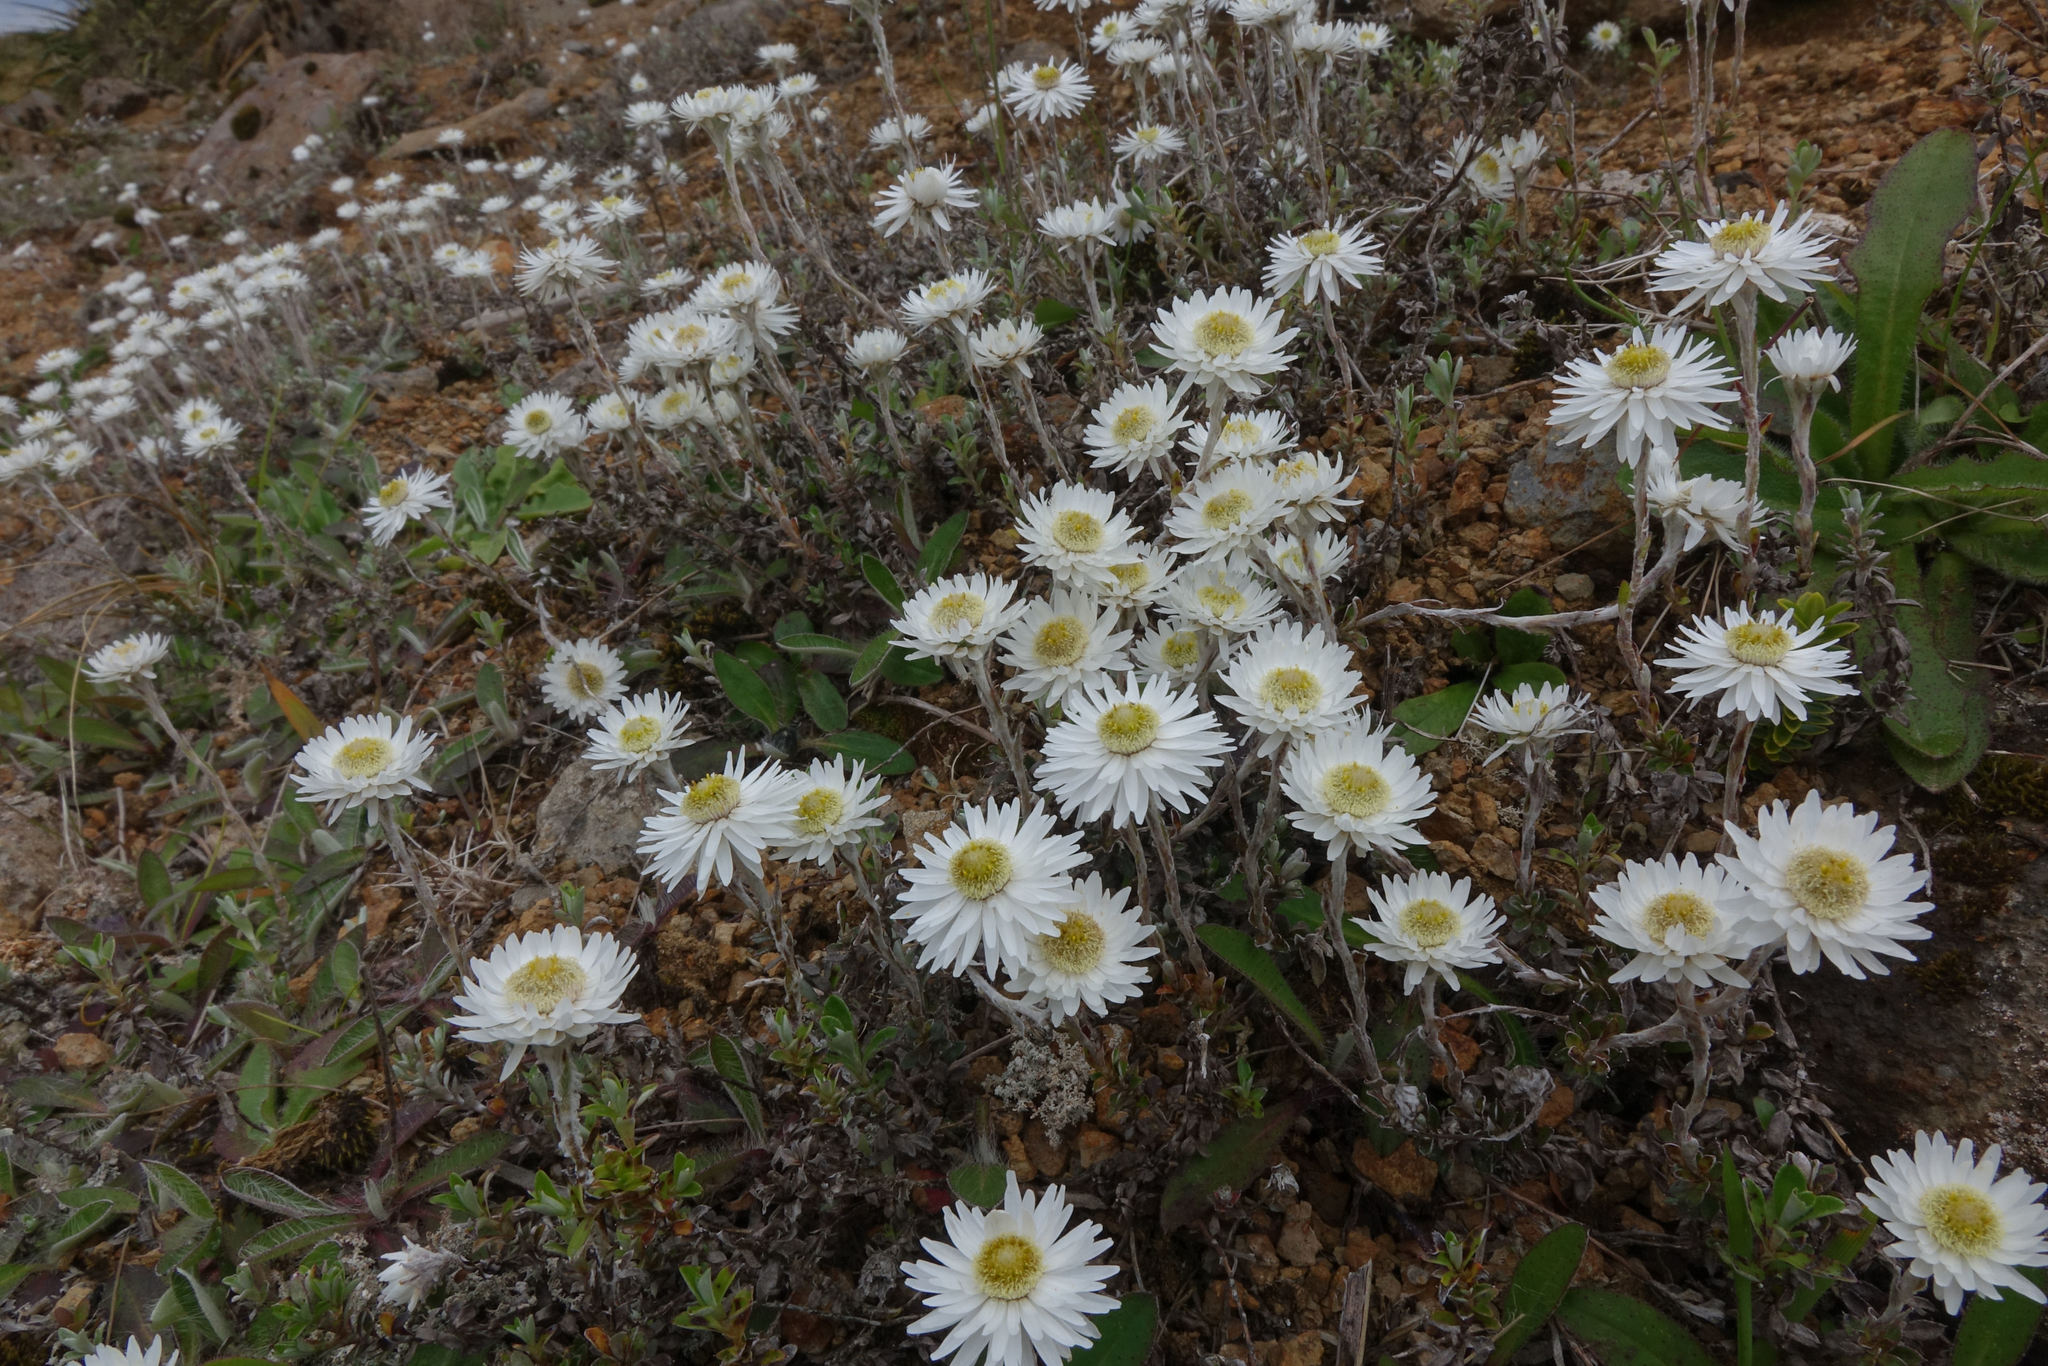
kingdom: Plantae
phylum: Tracheophyta
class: Magnoliopsida
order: Asterales
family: Asteraceae
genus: Anaphalioides
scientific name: Anaphalioides bellidioides
